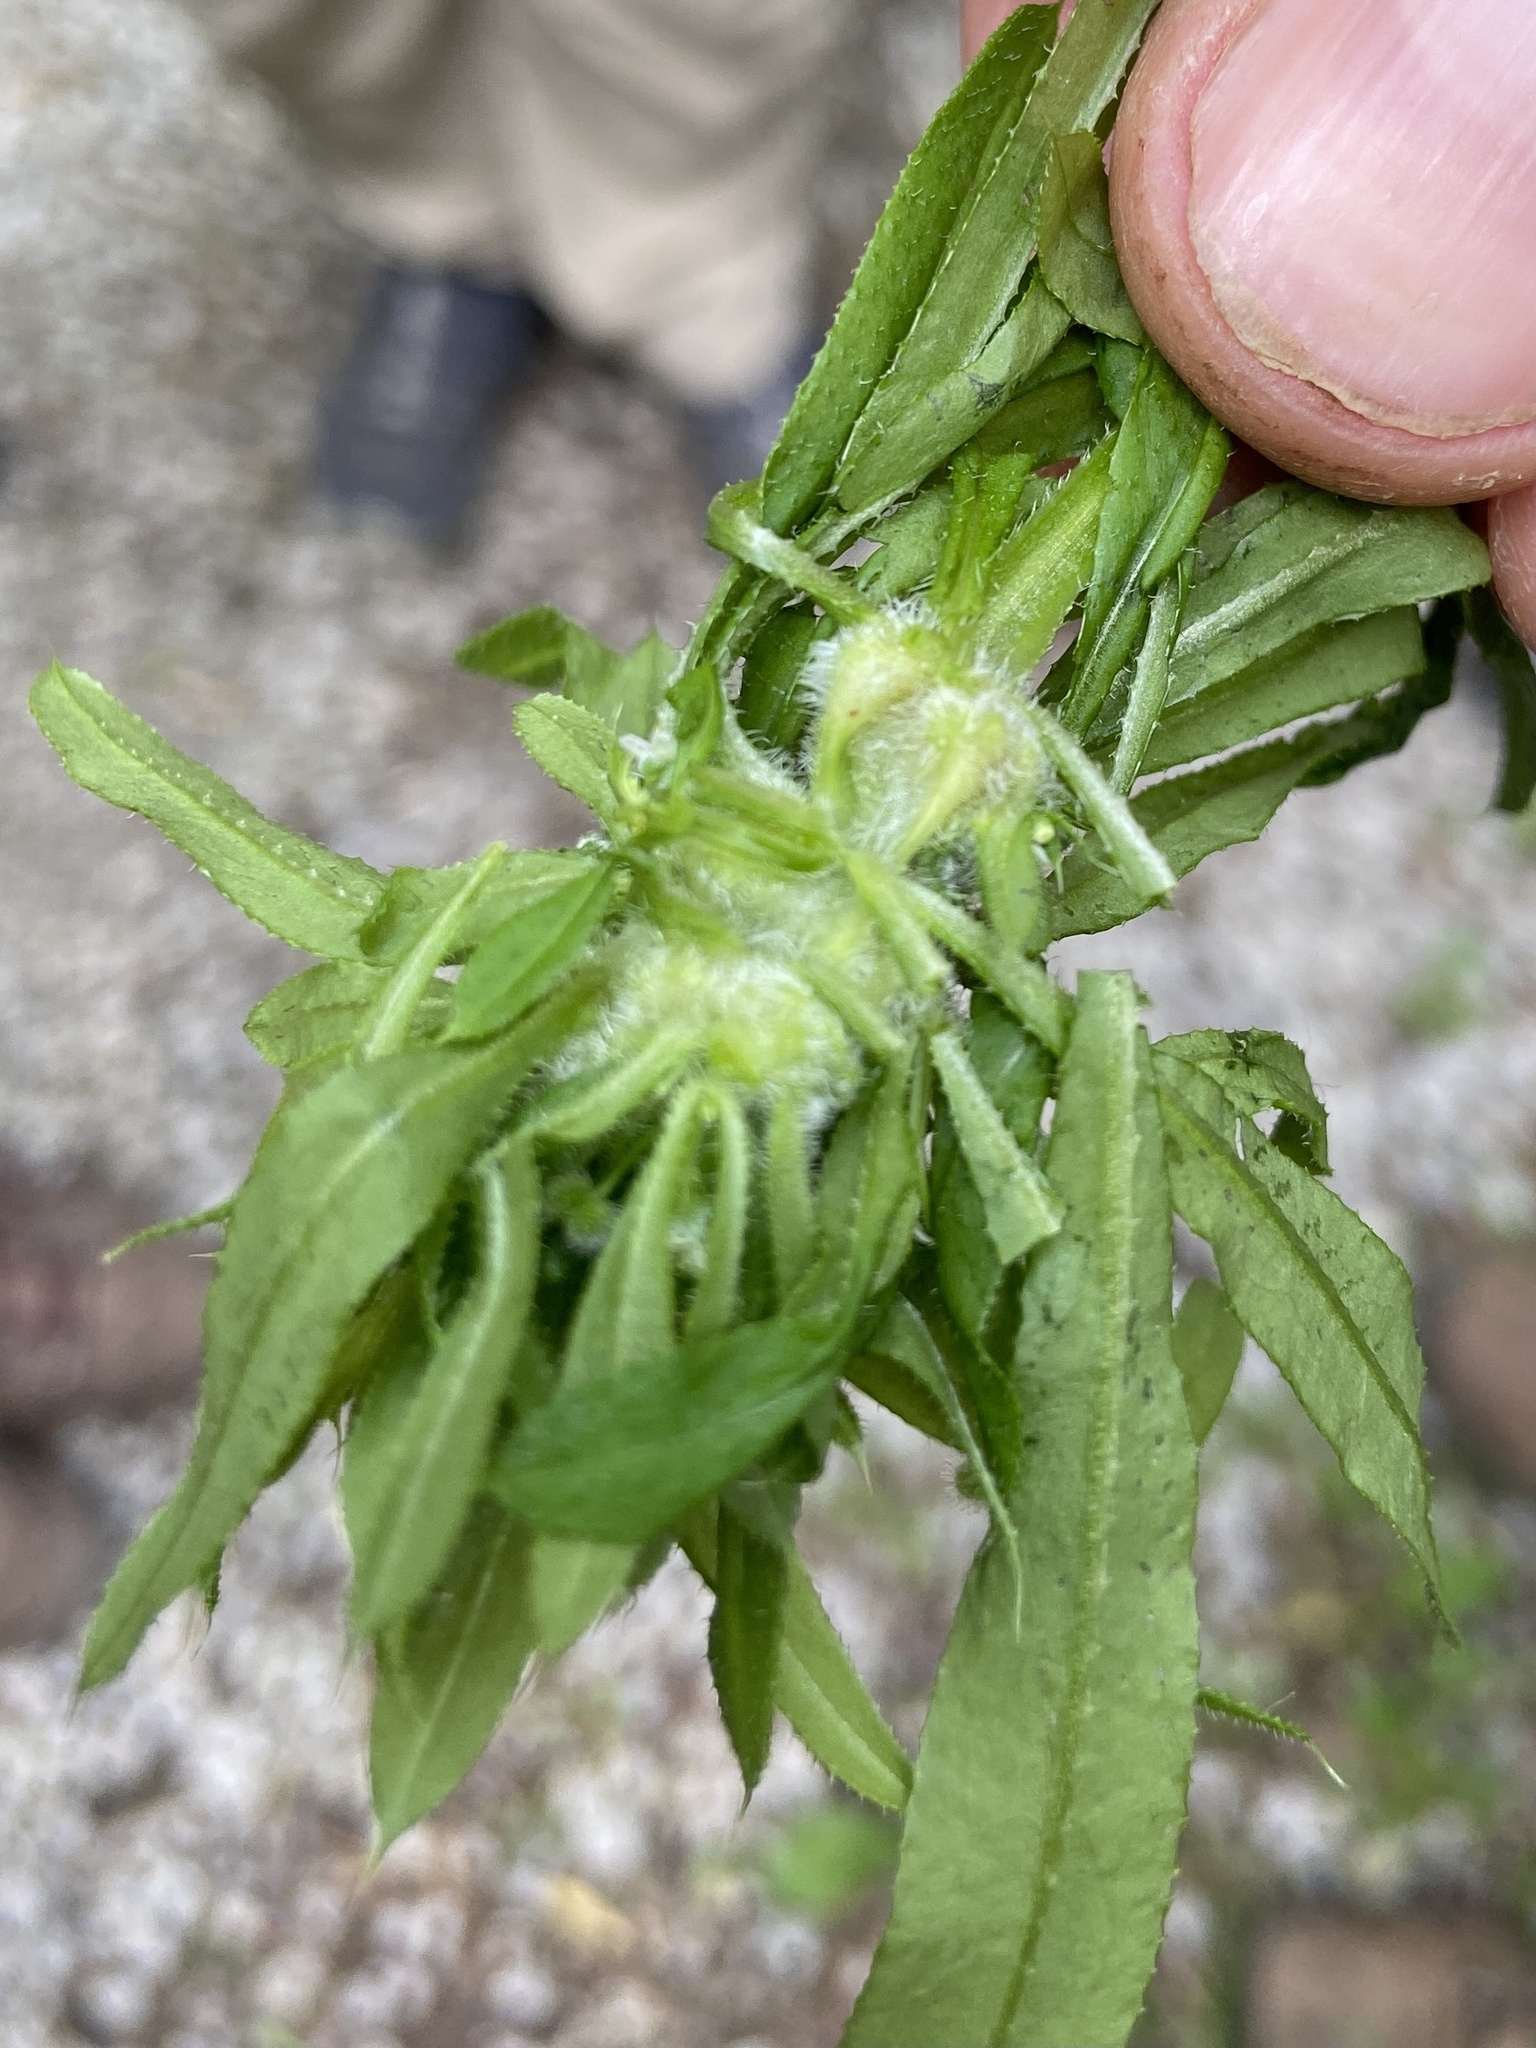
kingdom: Animalia
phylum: Arthropoda
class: Insecta
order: Diptera
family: Cecidomyiidae
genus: Dasineura
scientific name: Dasineura aparines
